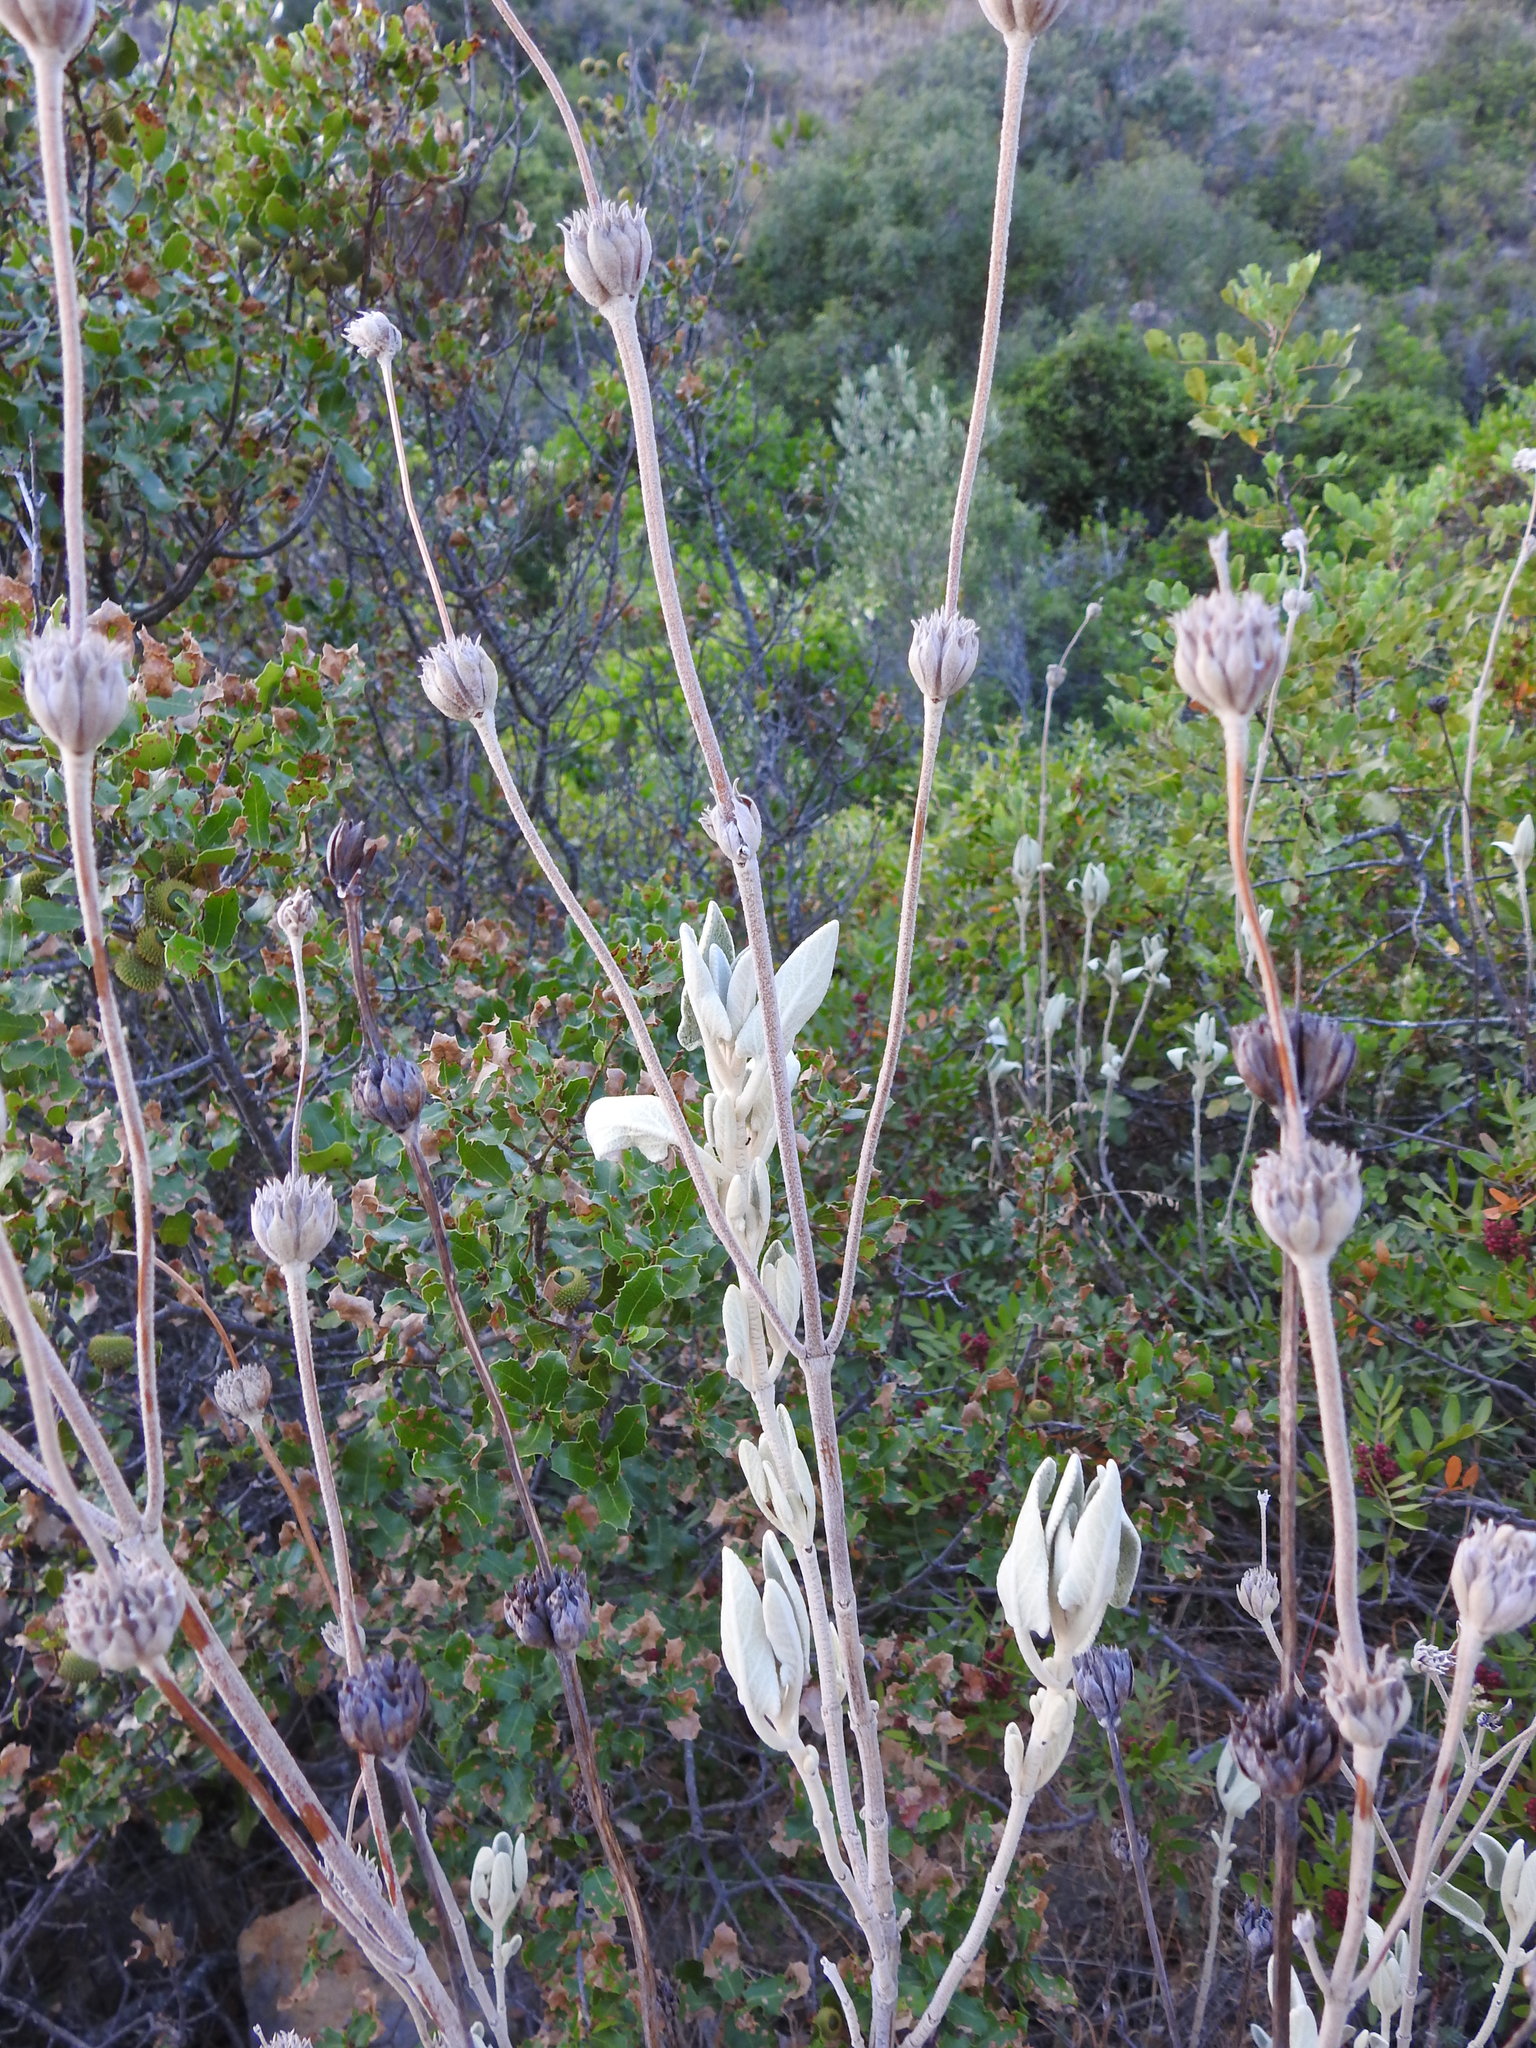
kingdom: Plantae
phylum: Tracheophyta
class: Magnoliopsida
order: Lamiales
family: Lamiaceae
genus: Phlomis
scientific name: Phlomis purpurea
